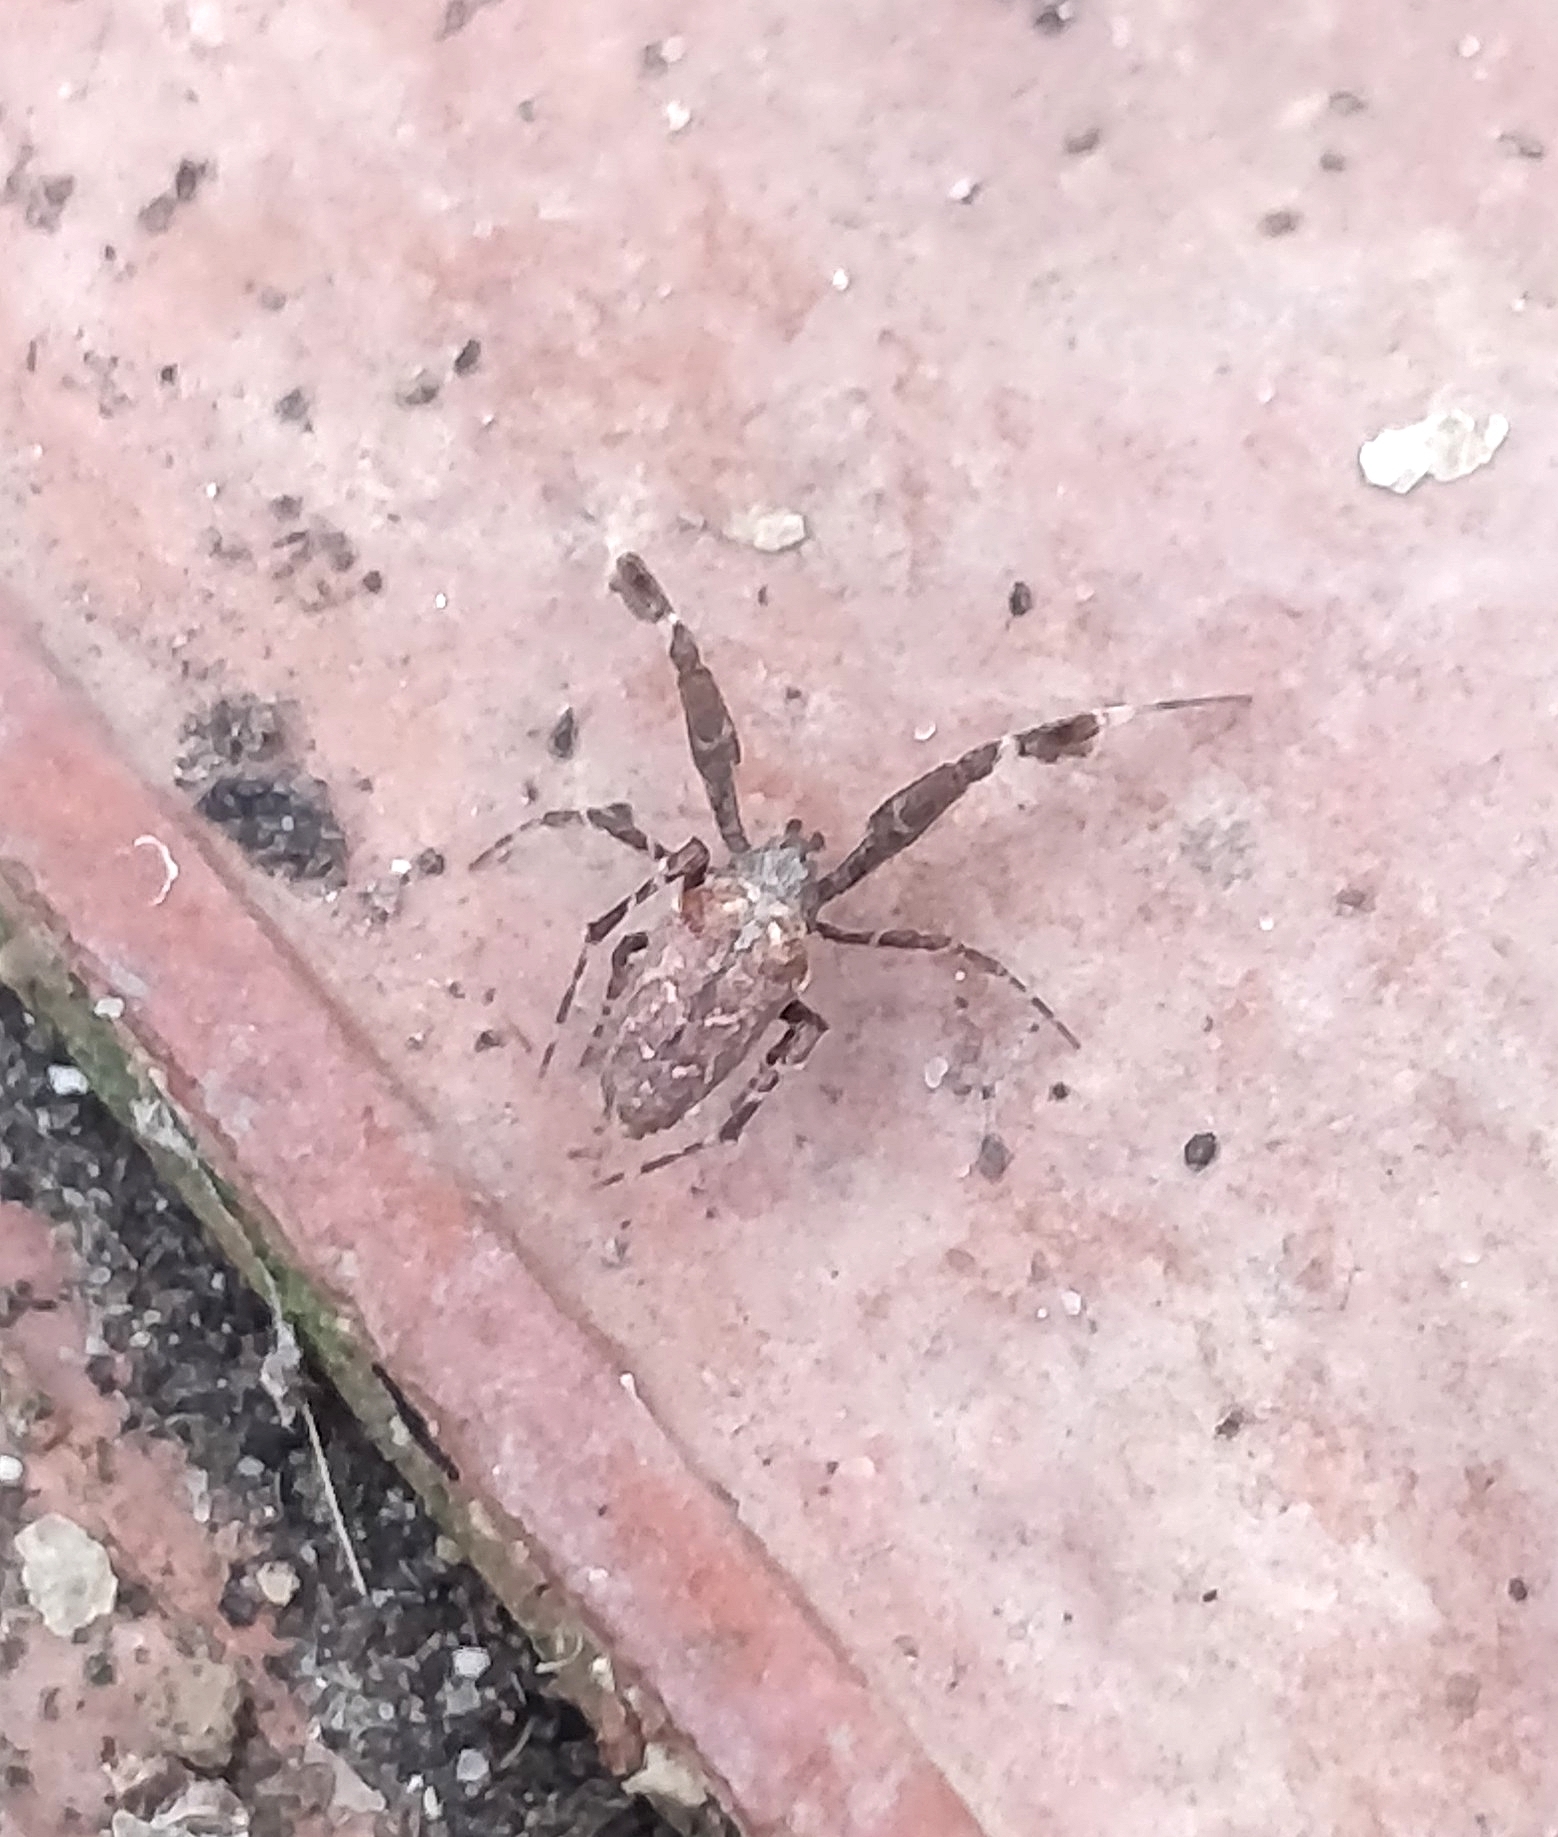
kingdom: Animalia
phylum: Arthropoda
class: Arachnida
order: Araneae
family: Uloboridae
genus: Uloborus
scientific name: Uloborus plumipes
